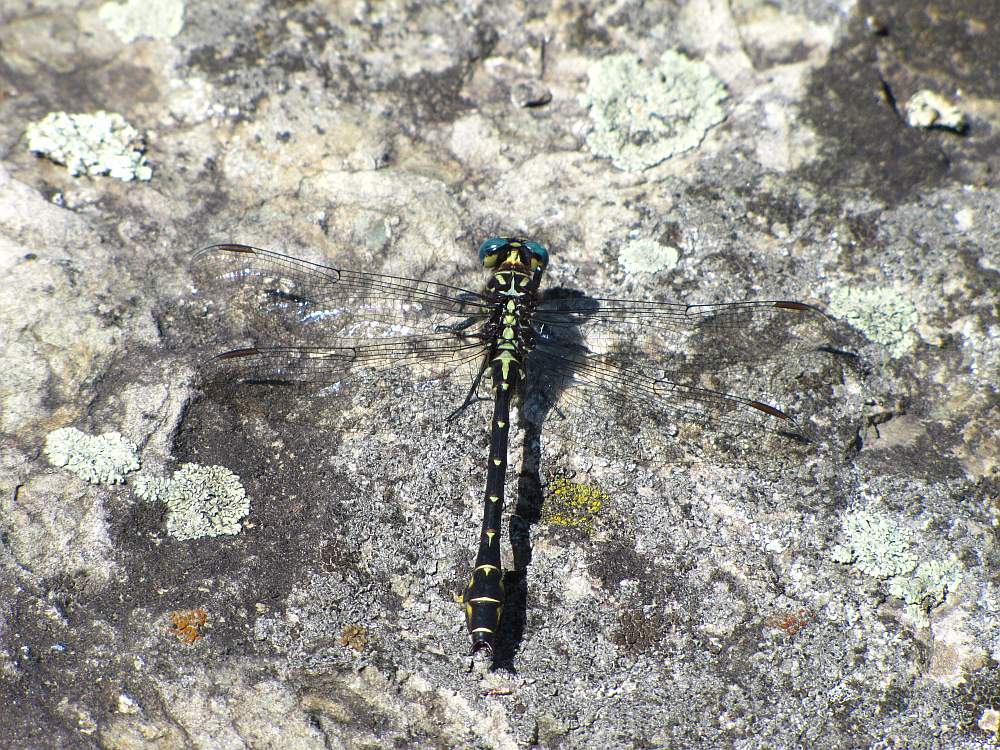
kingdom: Animalia
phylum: Arthropoda
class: Insecta
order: Odonata
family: Gomphidae
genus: Stylurus
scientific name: Stylurus notatus
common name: Elusive clubtail
